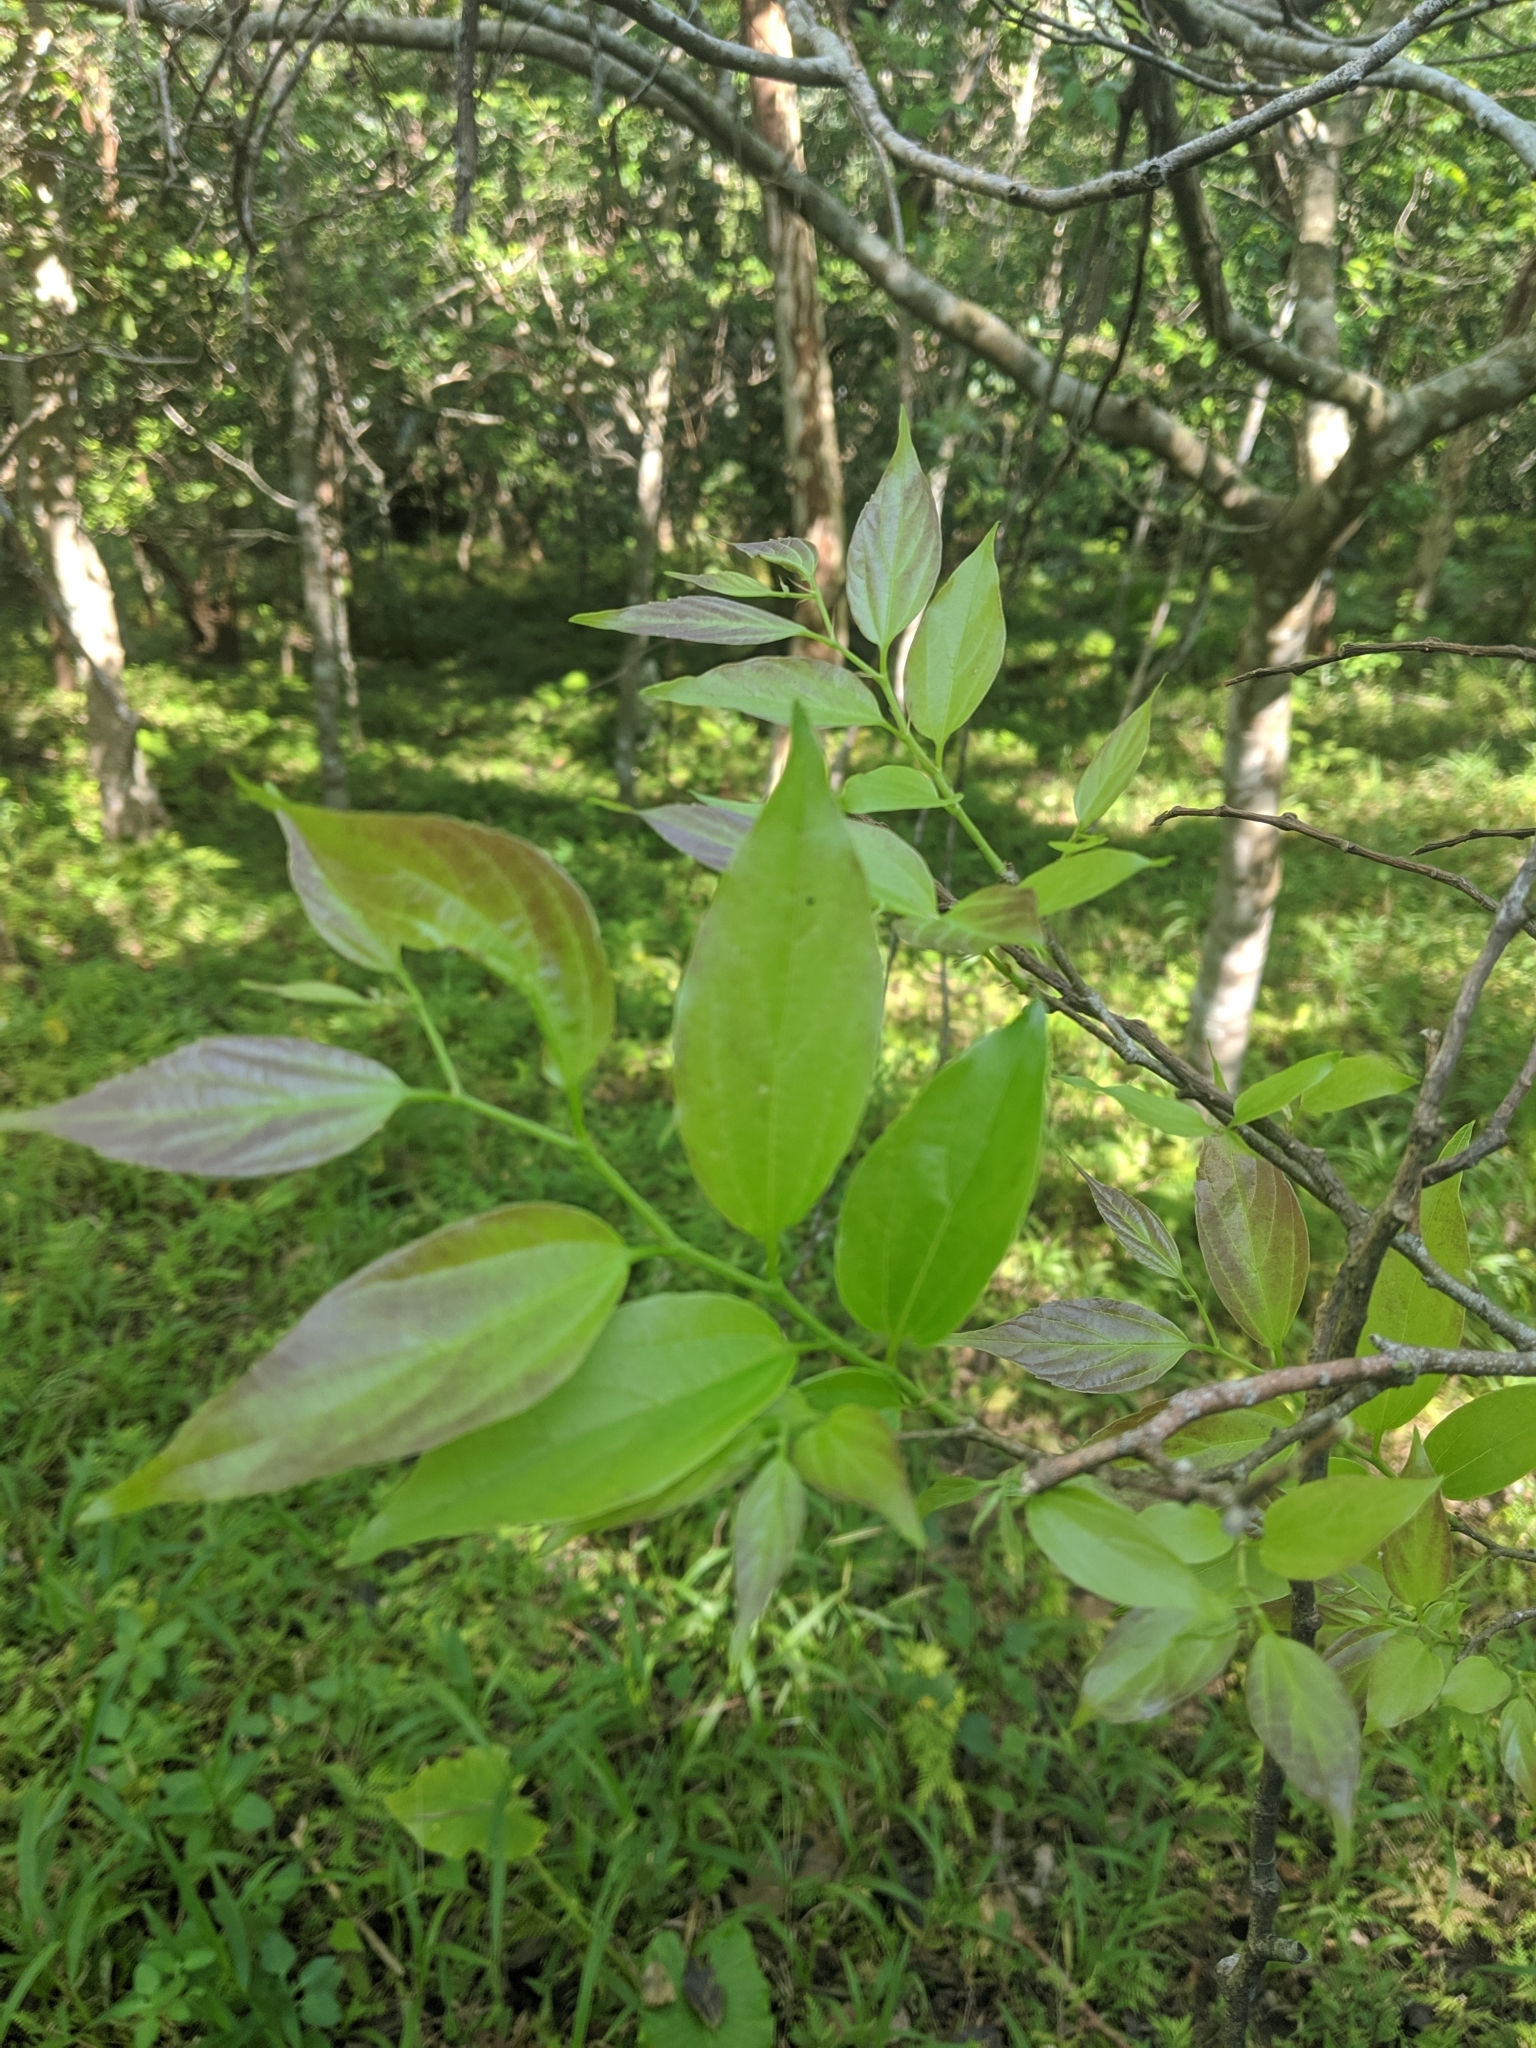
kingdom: Plantae
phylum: Tracheophyta
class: Magnoliopsida
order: Rosales
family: Cannabaceae
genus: Celtis
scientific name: Celtis tetrandra
